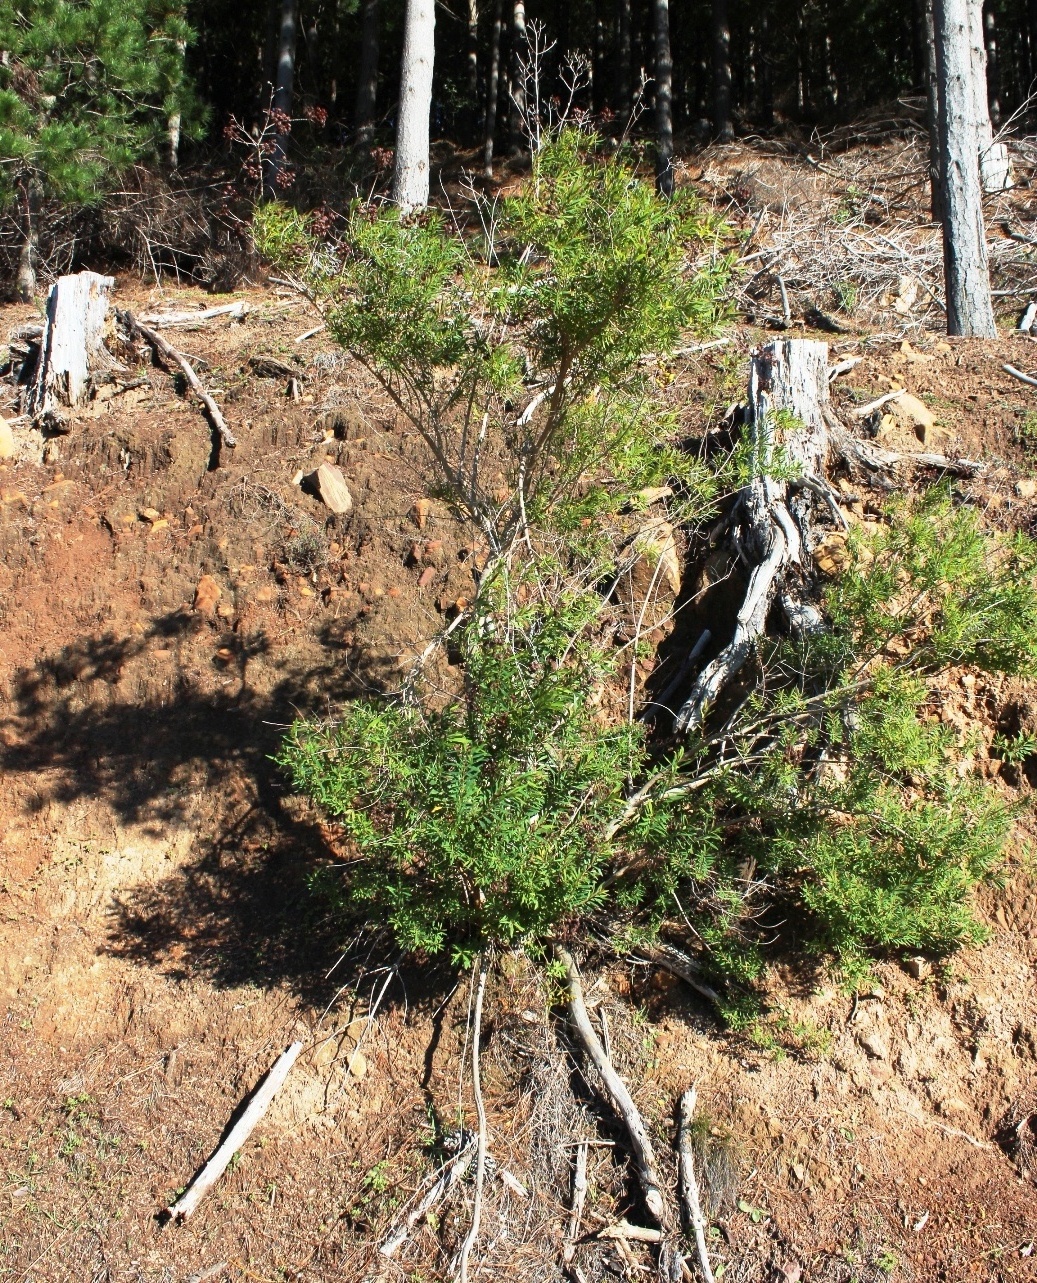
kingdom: Plantae
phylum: Tracheophyta
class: Magnoliopsida
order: Malpighiales
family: Hypericaceae
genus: Hypericum
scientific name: Hypericum canariense
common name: Canary island st. johnswort
